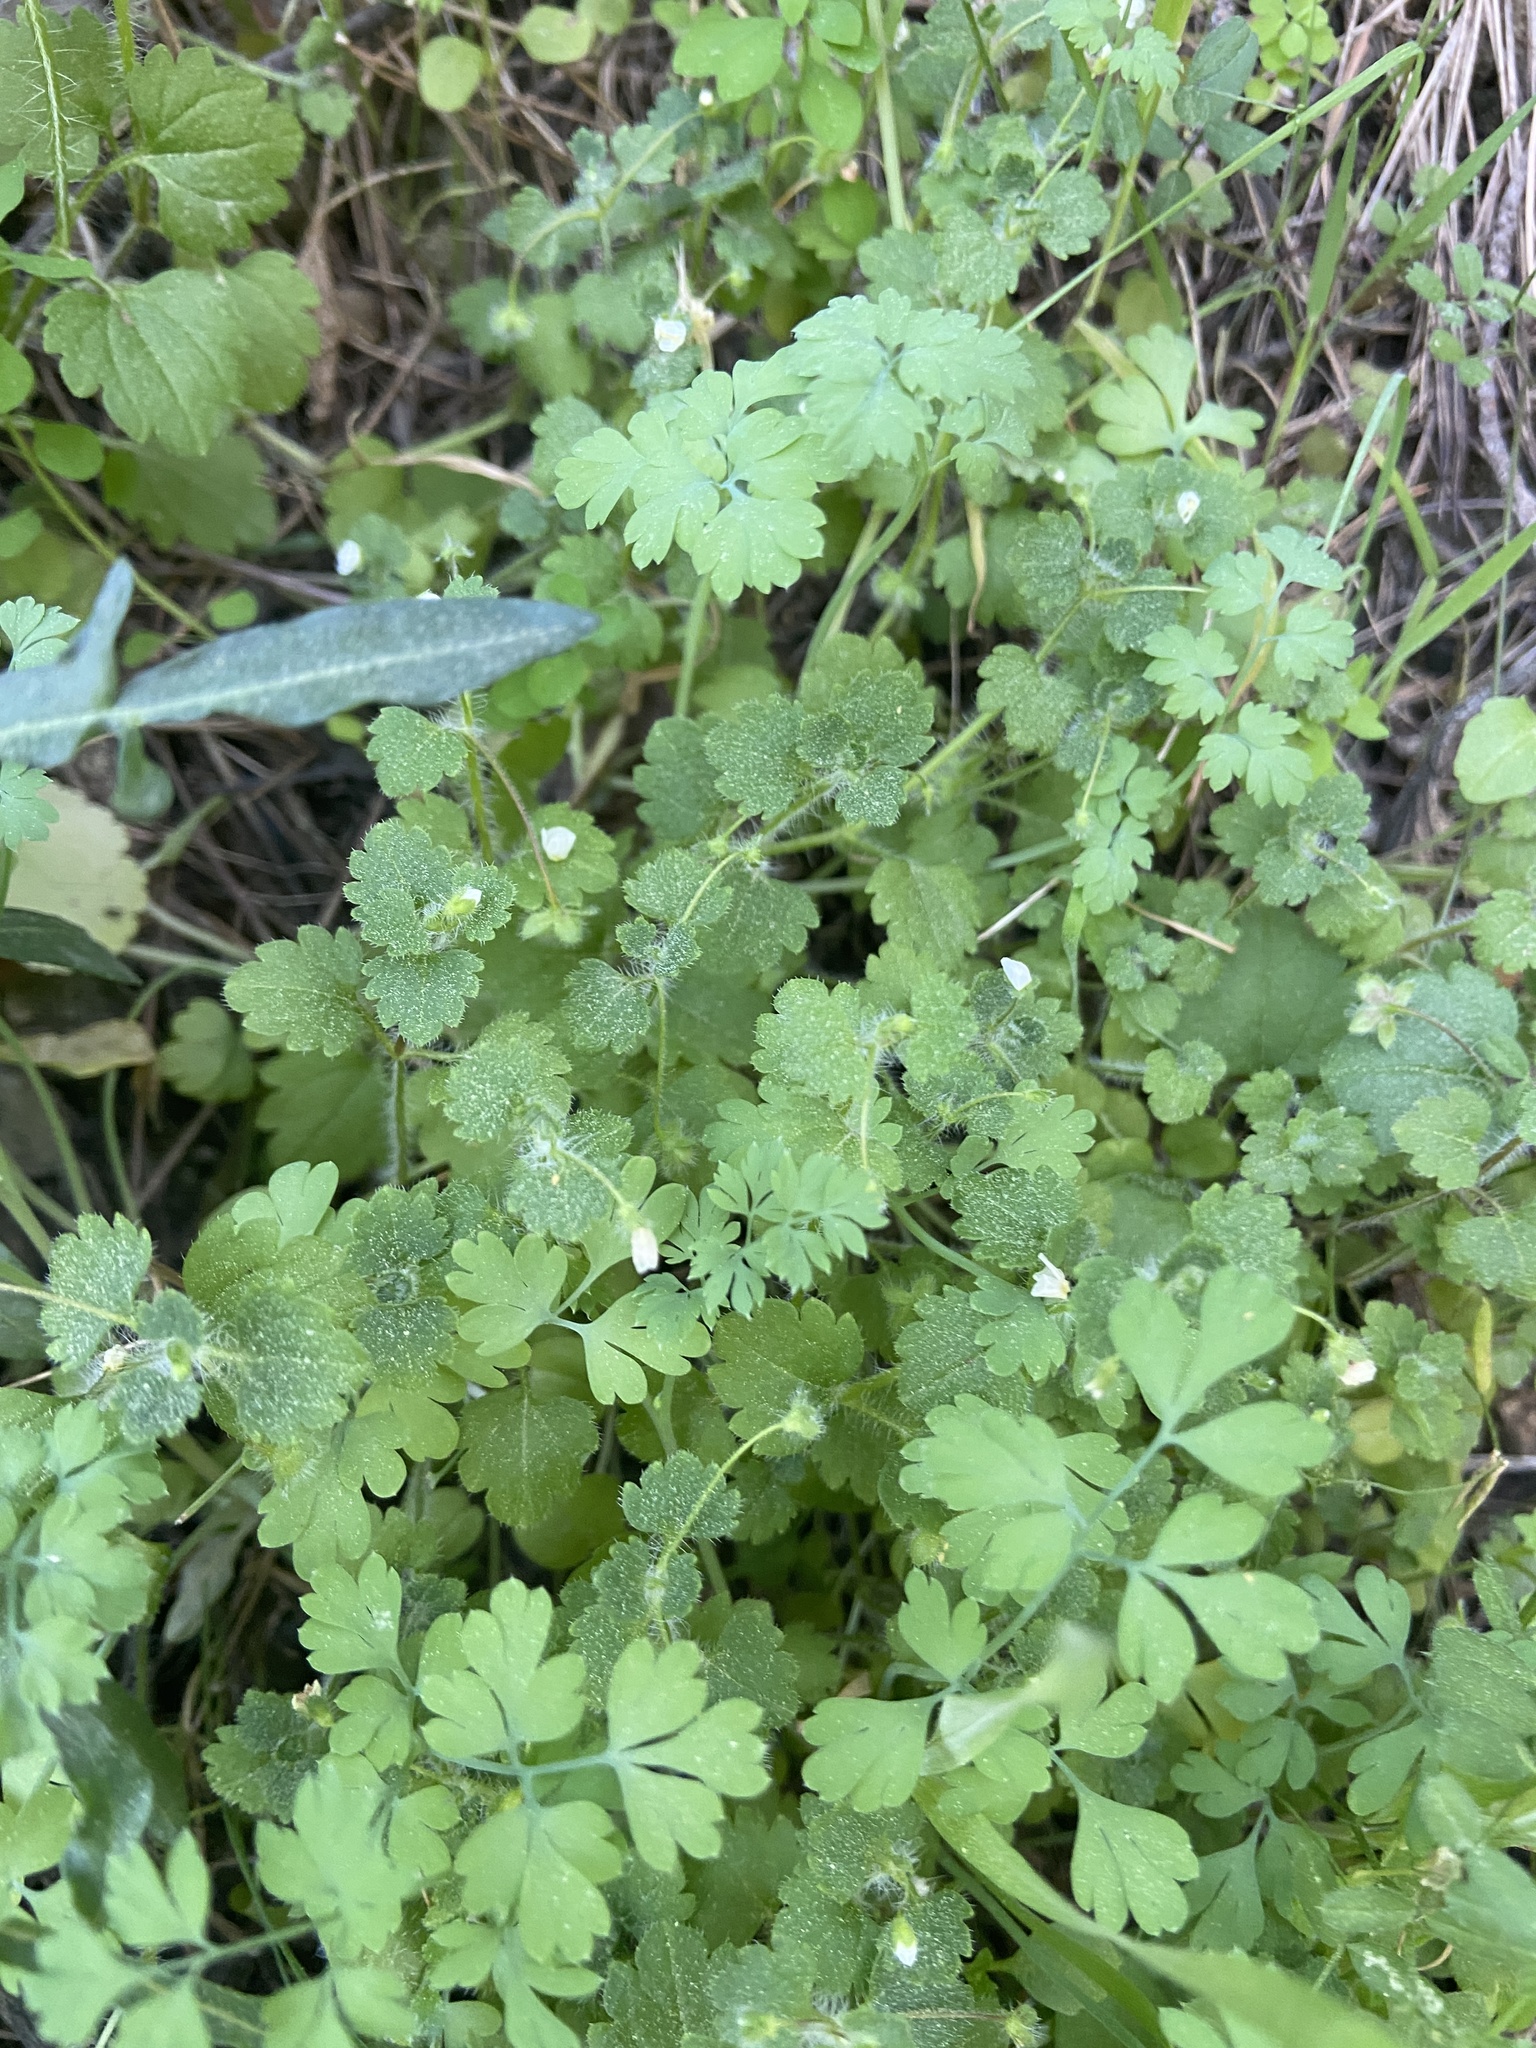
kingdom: Plantae
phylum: Tracheophyta
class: Magnoliopsida
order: Lamiales
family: Plantaginaceae
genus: Veronica
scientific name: Veronica cymbalaria
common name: Pale speedwell
